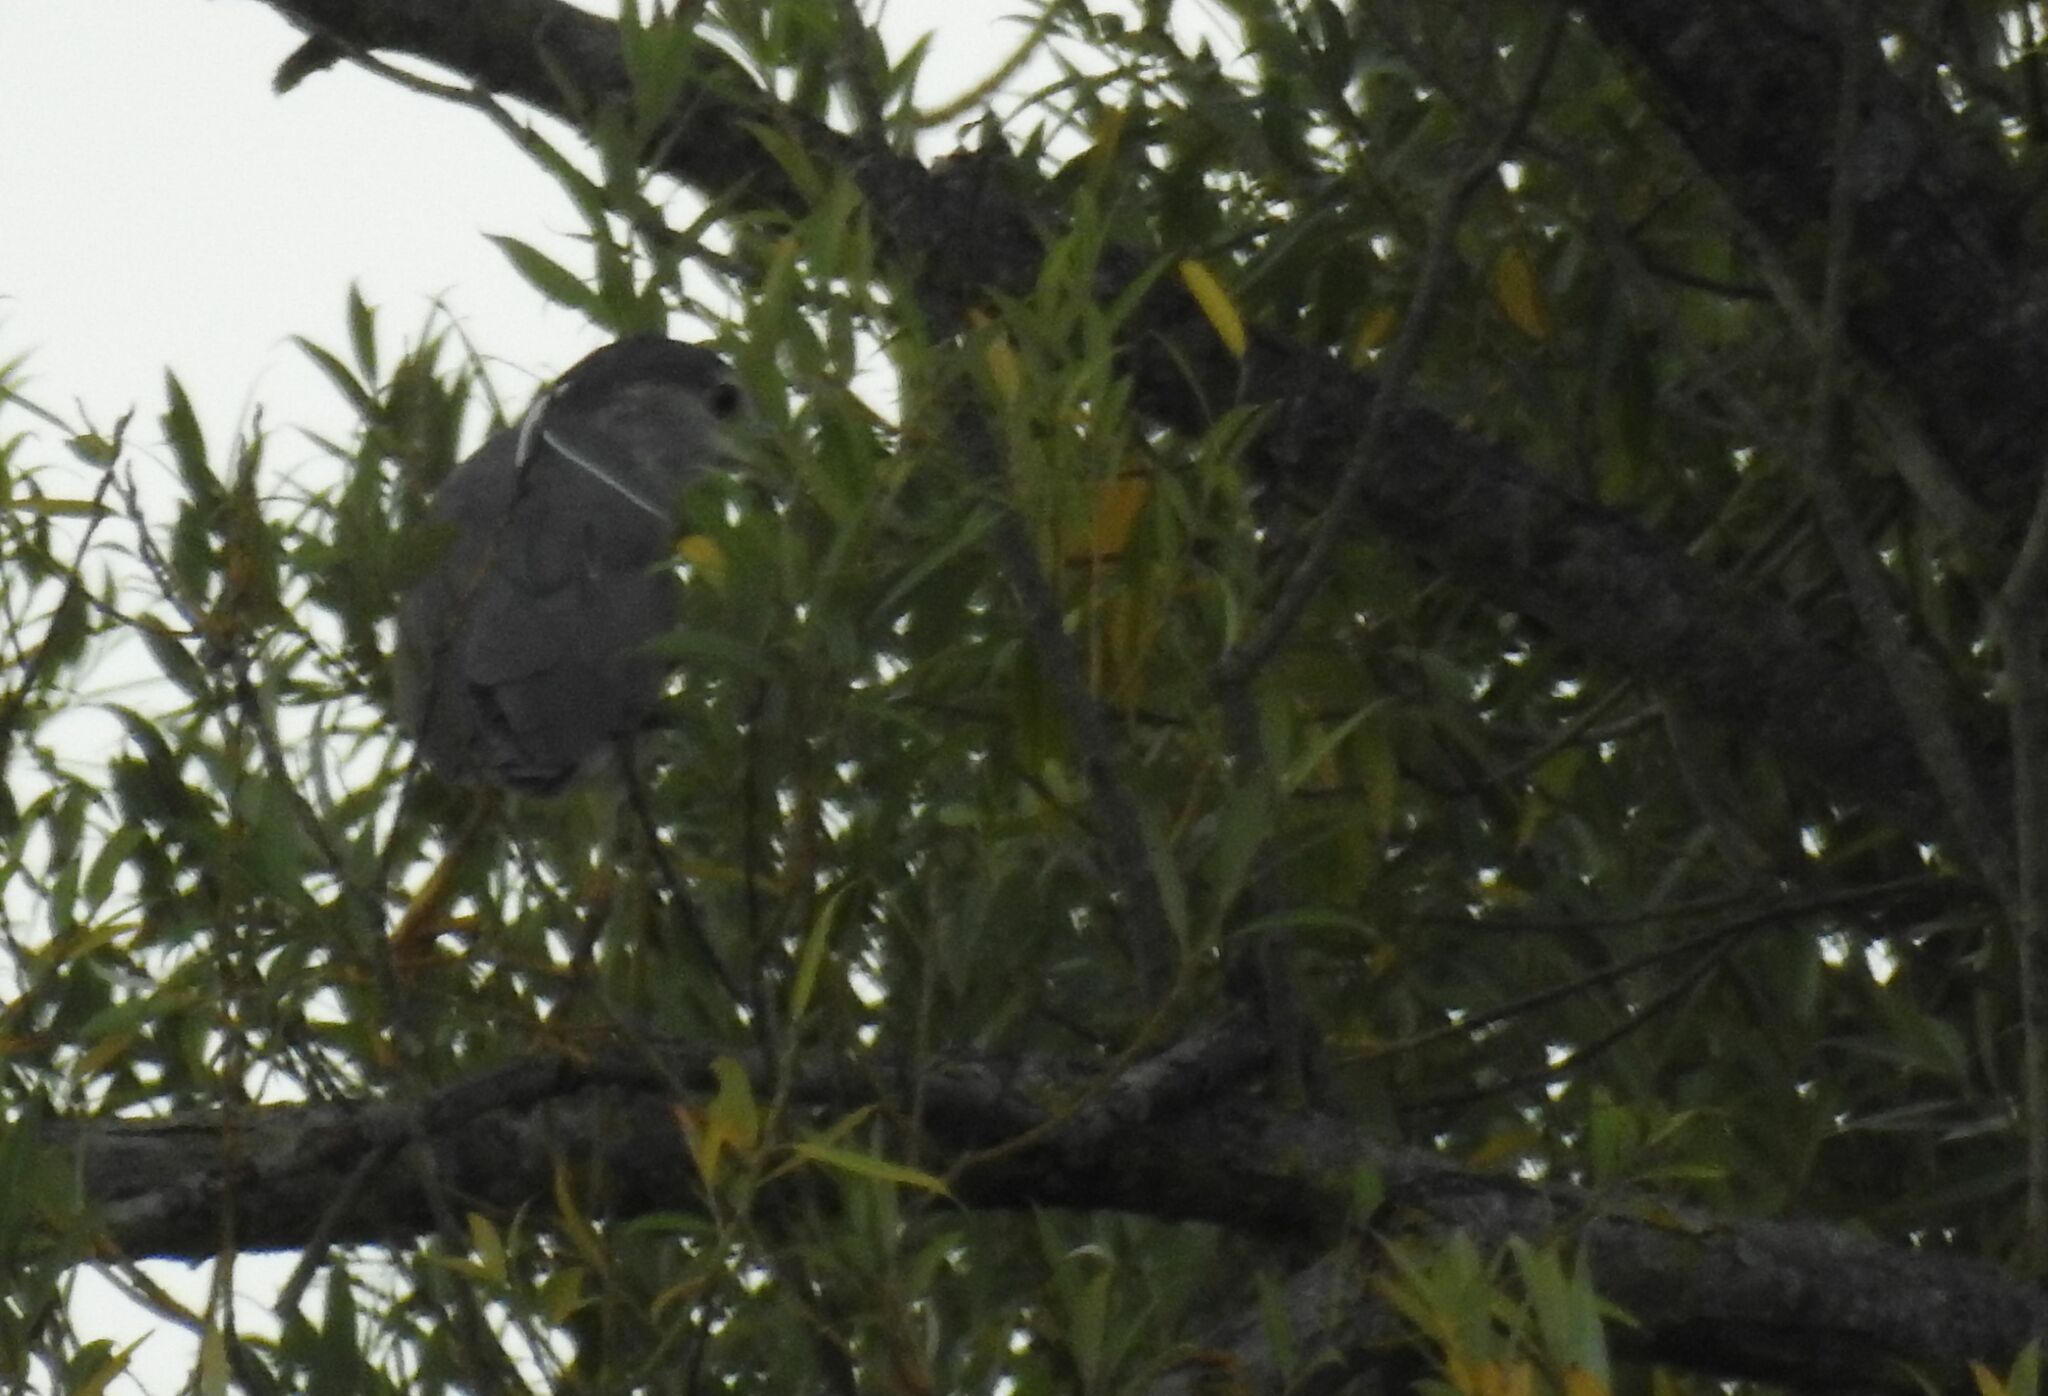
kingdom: Animalia
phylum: Chordata
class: Aves
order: Pelecaniformes
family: Ardeidae
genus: Nycticorax
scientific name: Nycticorax nycticorax
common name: Black-crowned night heron
